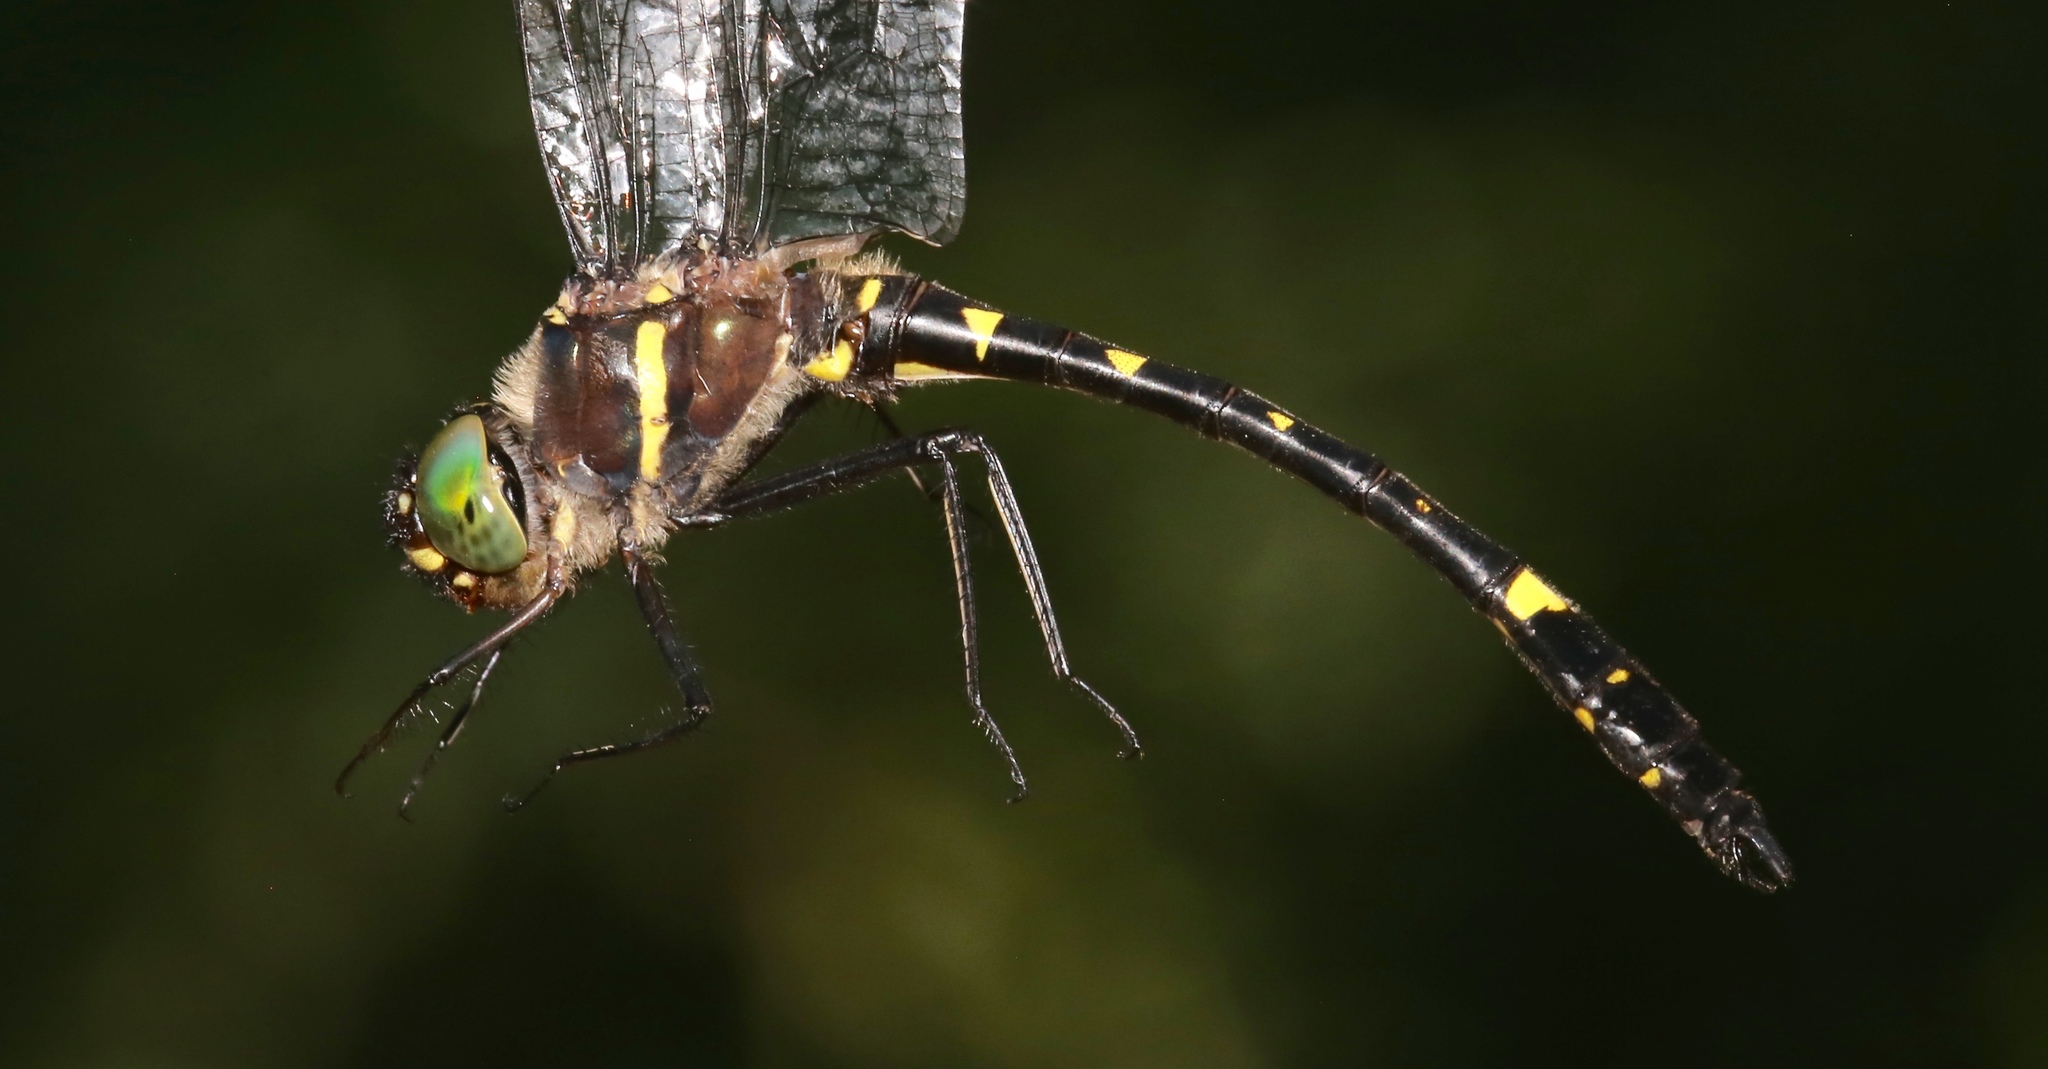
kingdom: Animalia
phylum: Arthropoda
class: Insecta
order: Odonata
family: Macromiidae
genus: Macromia
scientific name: Macromia illinoiensis
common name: Swift river cruiser
